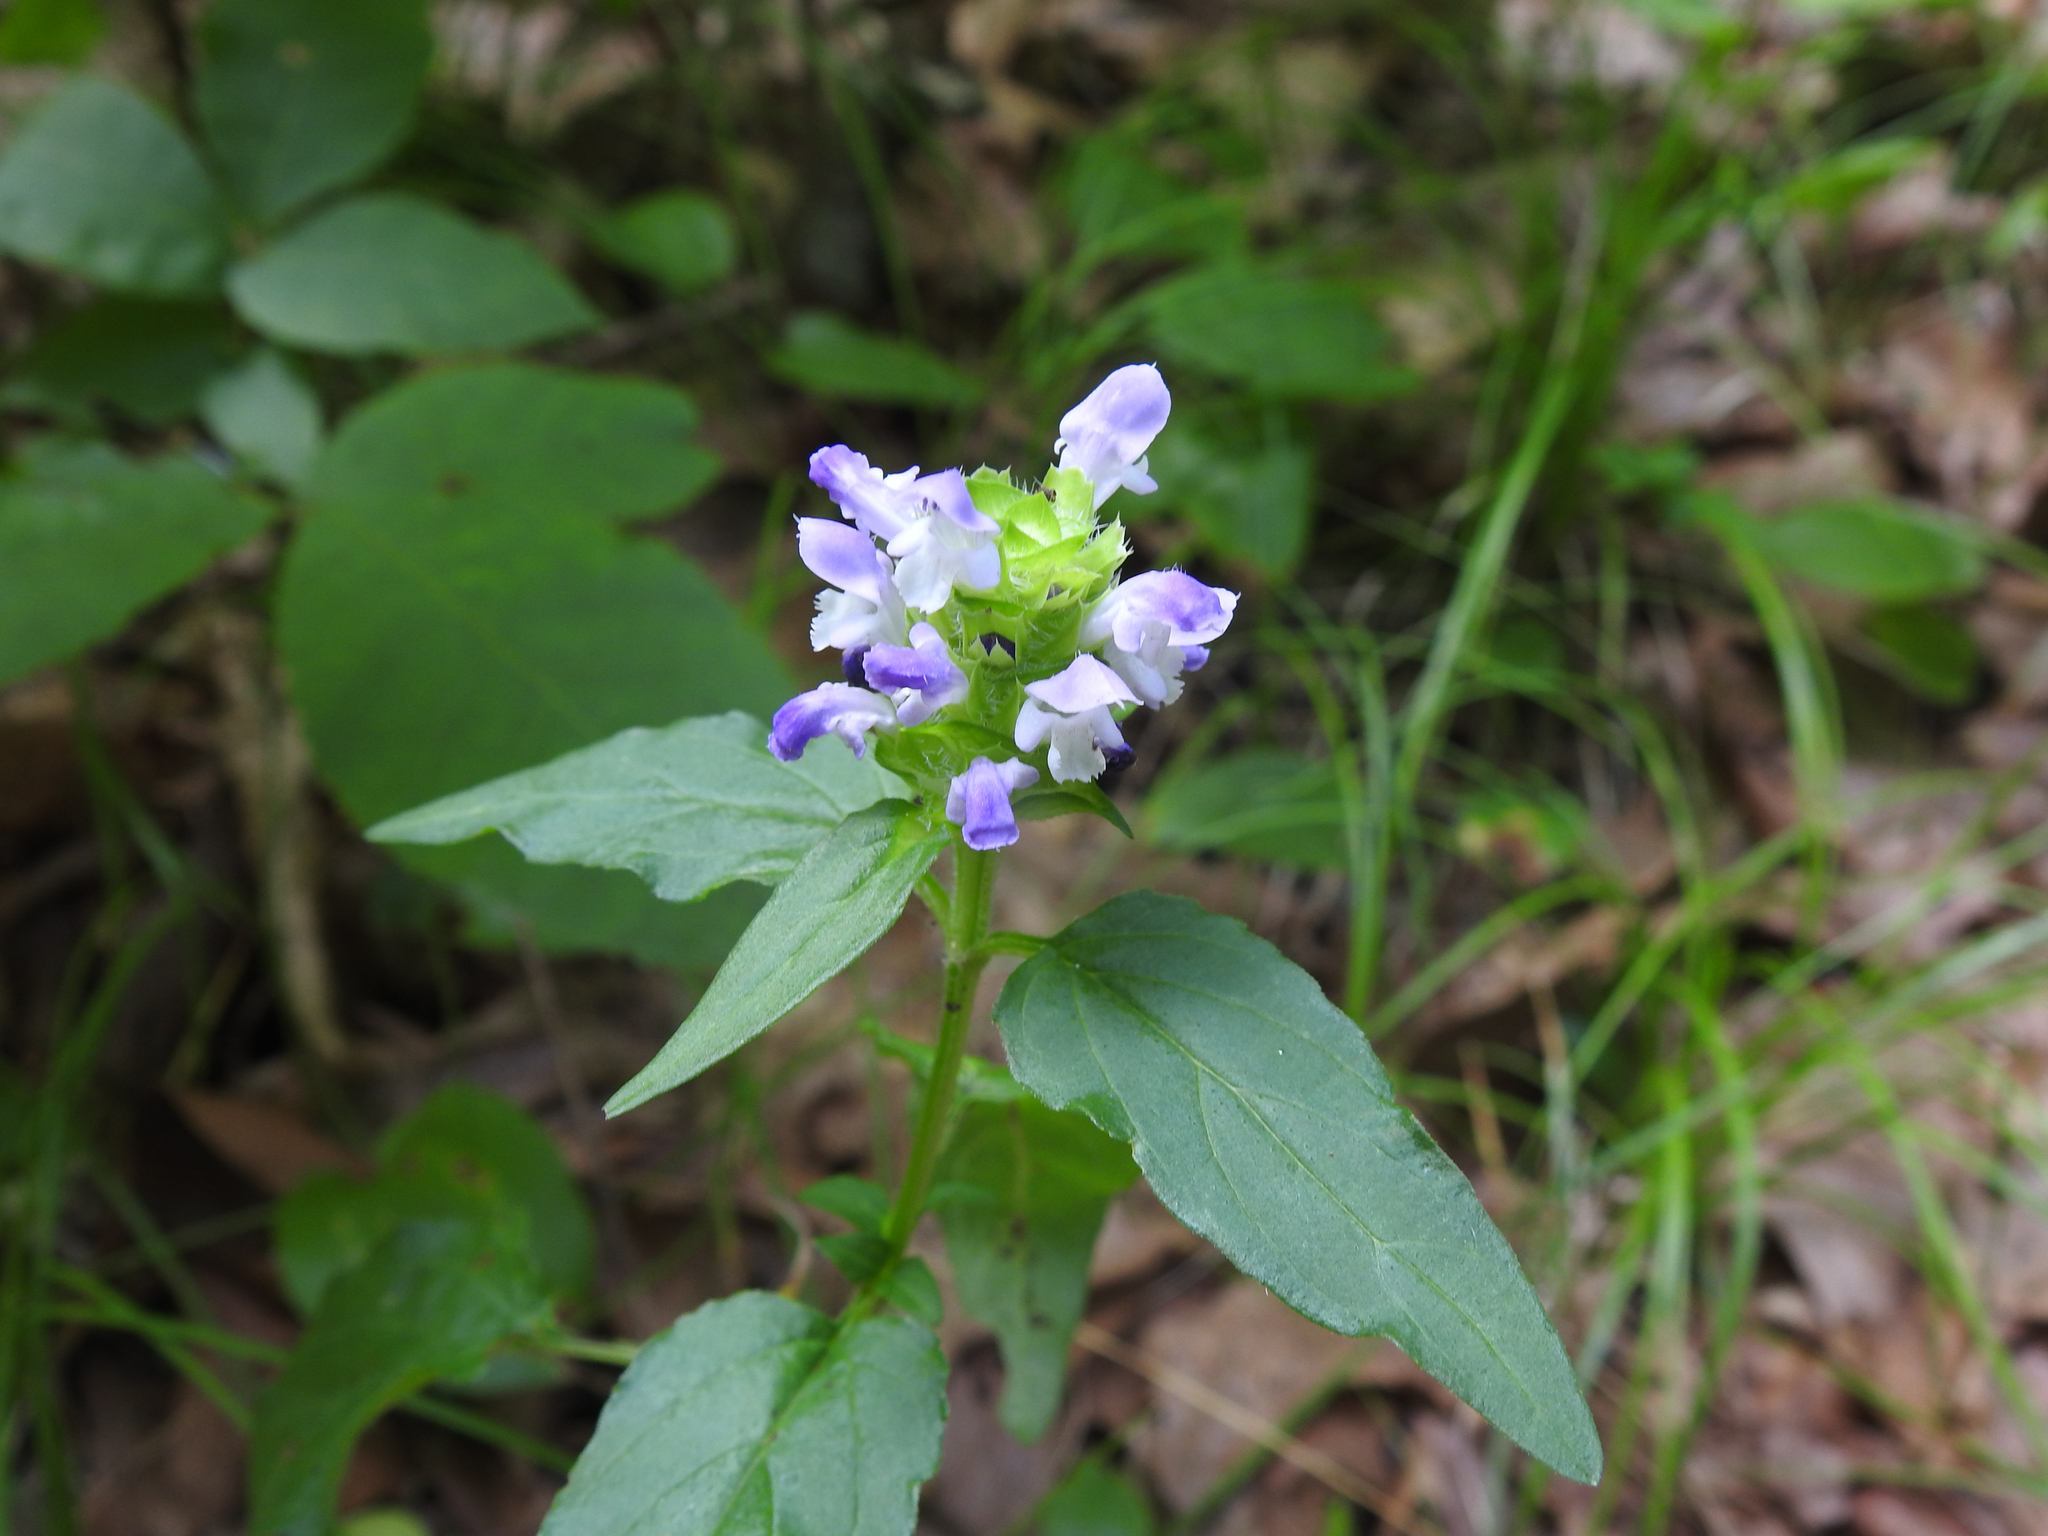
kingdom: Plantae
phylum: Tracheophyta
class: Magnoliopsida
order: Lamiales
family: Lamiaceae
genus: Prunella
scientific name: Prunella vulgaris
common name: Heal-all
